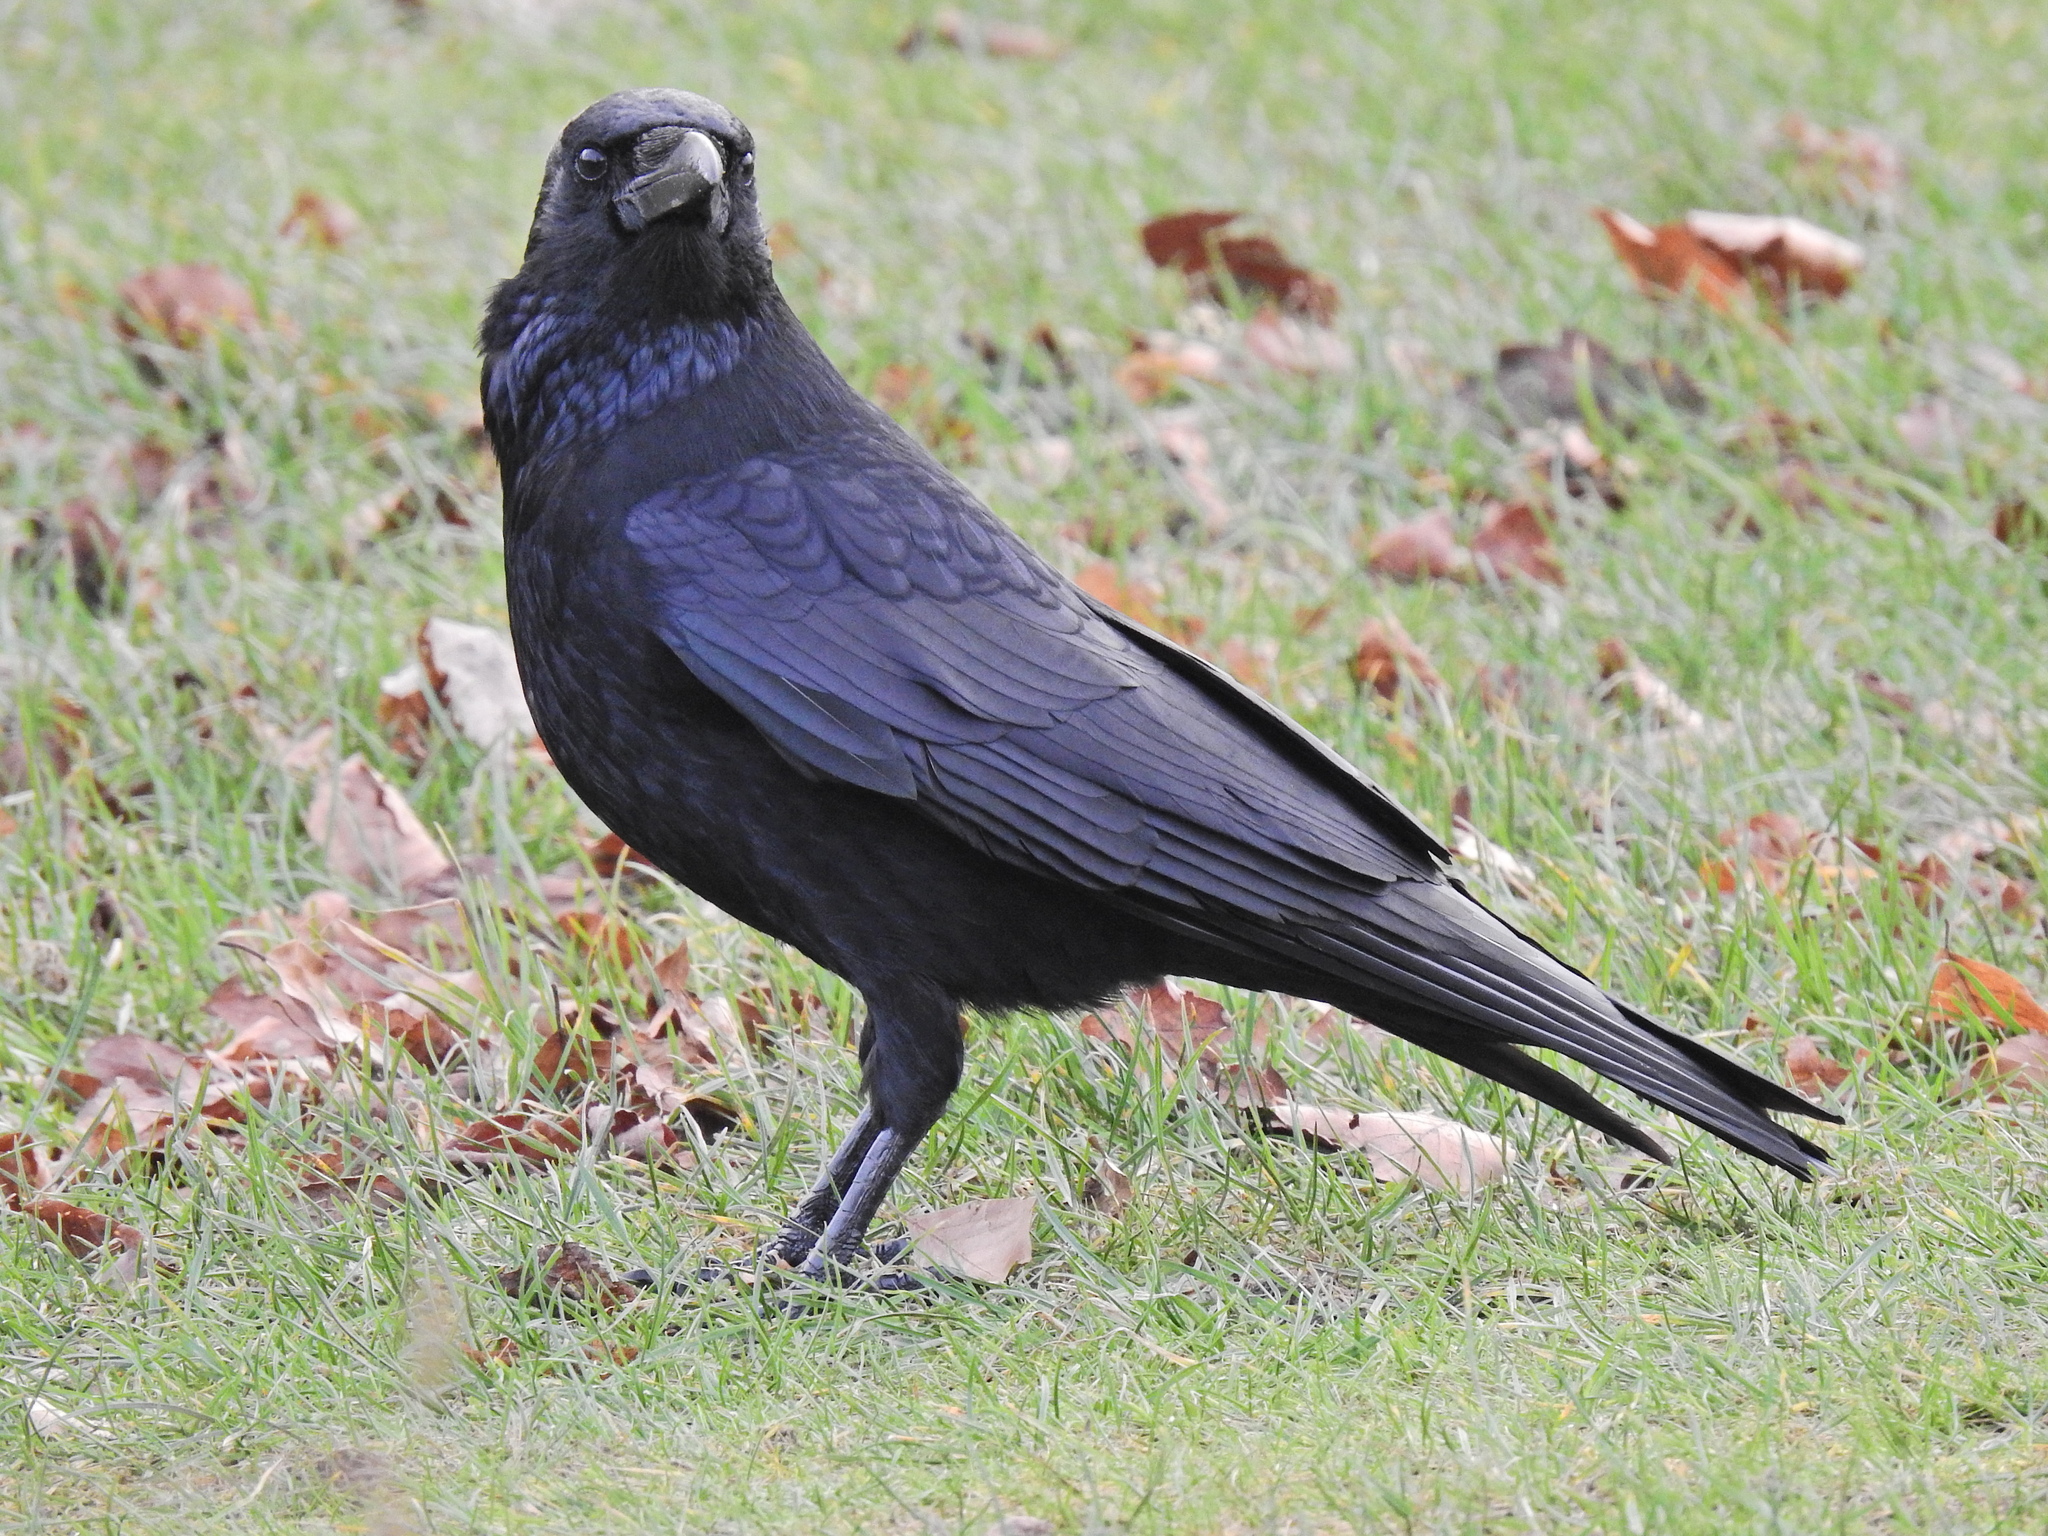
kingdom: Animalia
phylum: Chordata
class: Aves
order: Passeriformes
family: Corvidae
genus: Corvus
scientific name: Corvus corone
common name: Carrion crow
